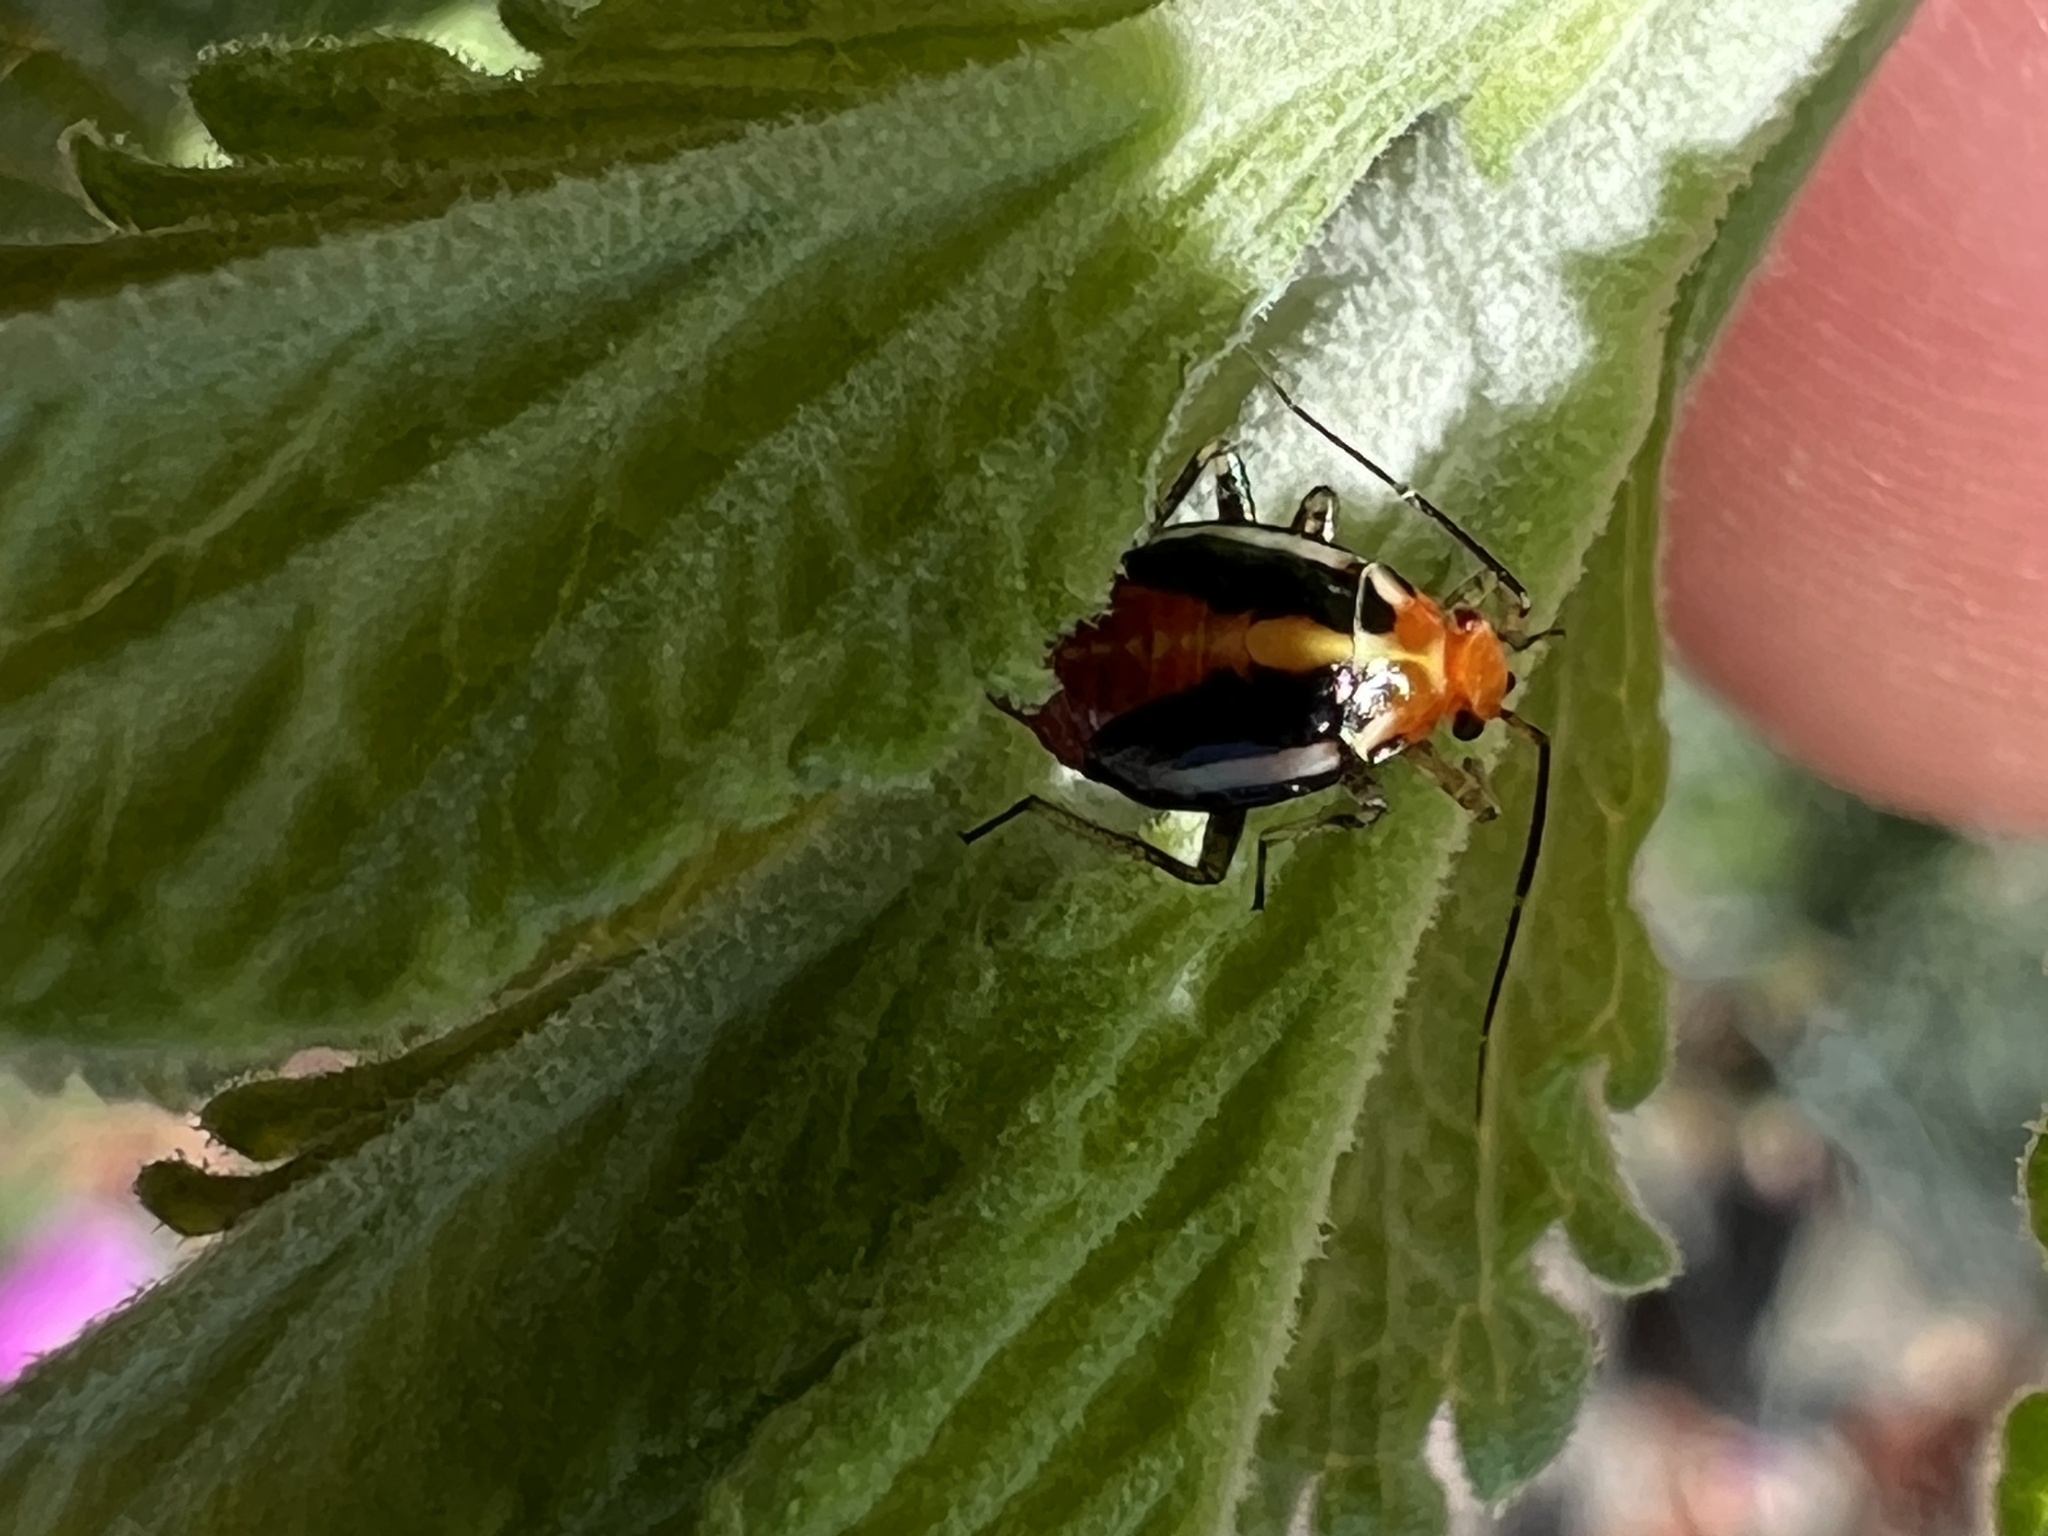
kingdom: Animalia
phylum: Arthropoda
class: Insecta
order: Hemiptera
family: Miridae
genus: Poecilocapsus
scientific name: Poecilocapsus lineatus
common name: Four-lined plant bug
